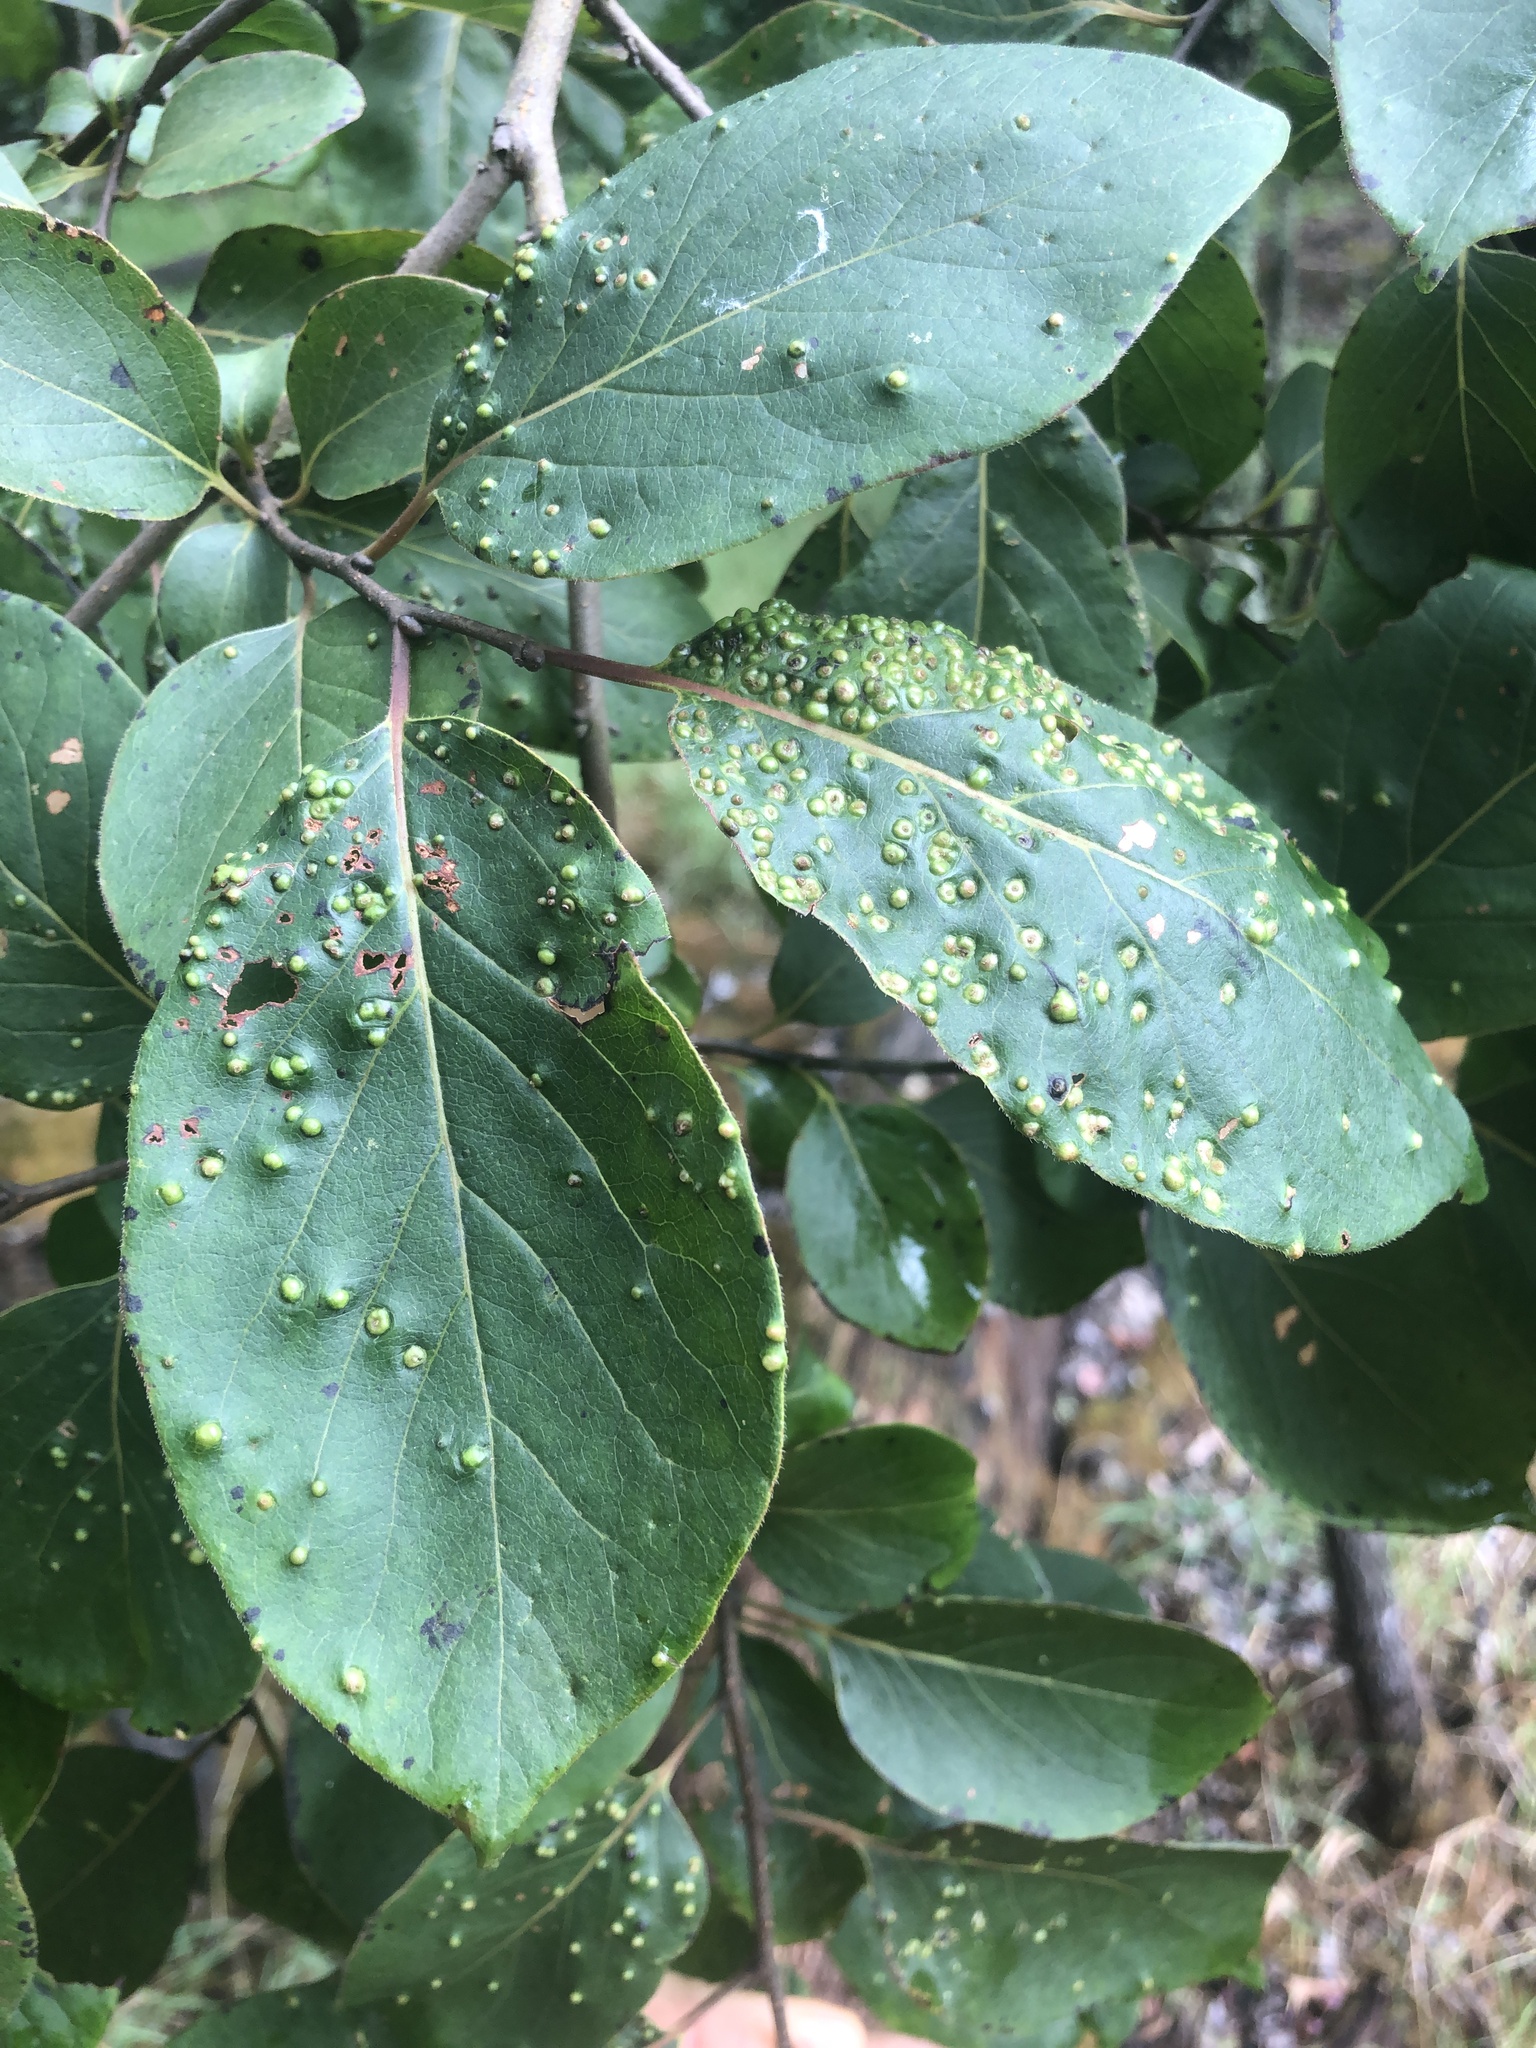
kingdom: Animalia
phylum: Arthropoda
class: Arachnida
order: Trombidiformes
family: Eriophyidae
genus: Aceria
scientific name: Aceria
